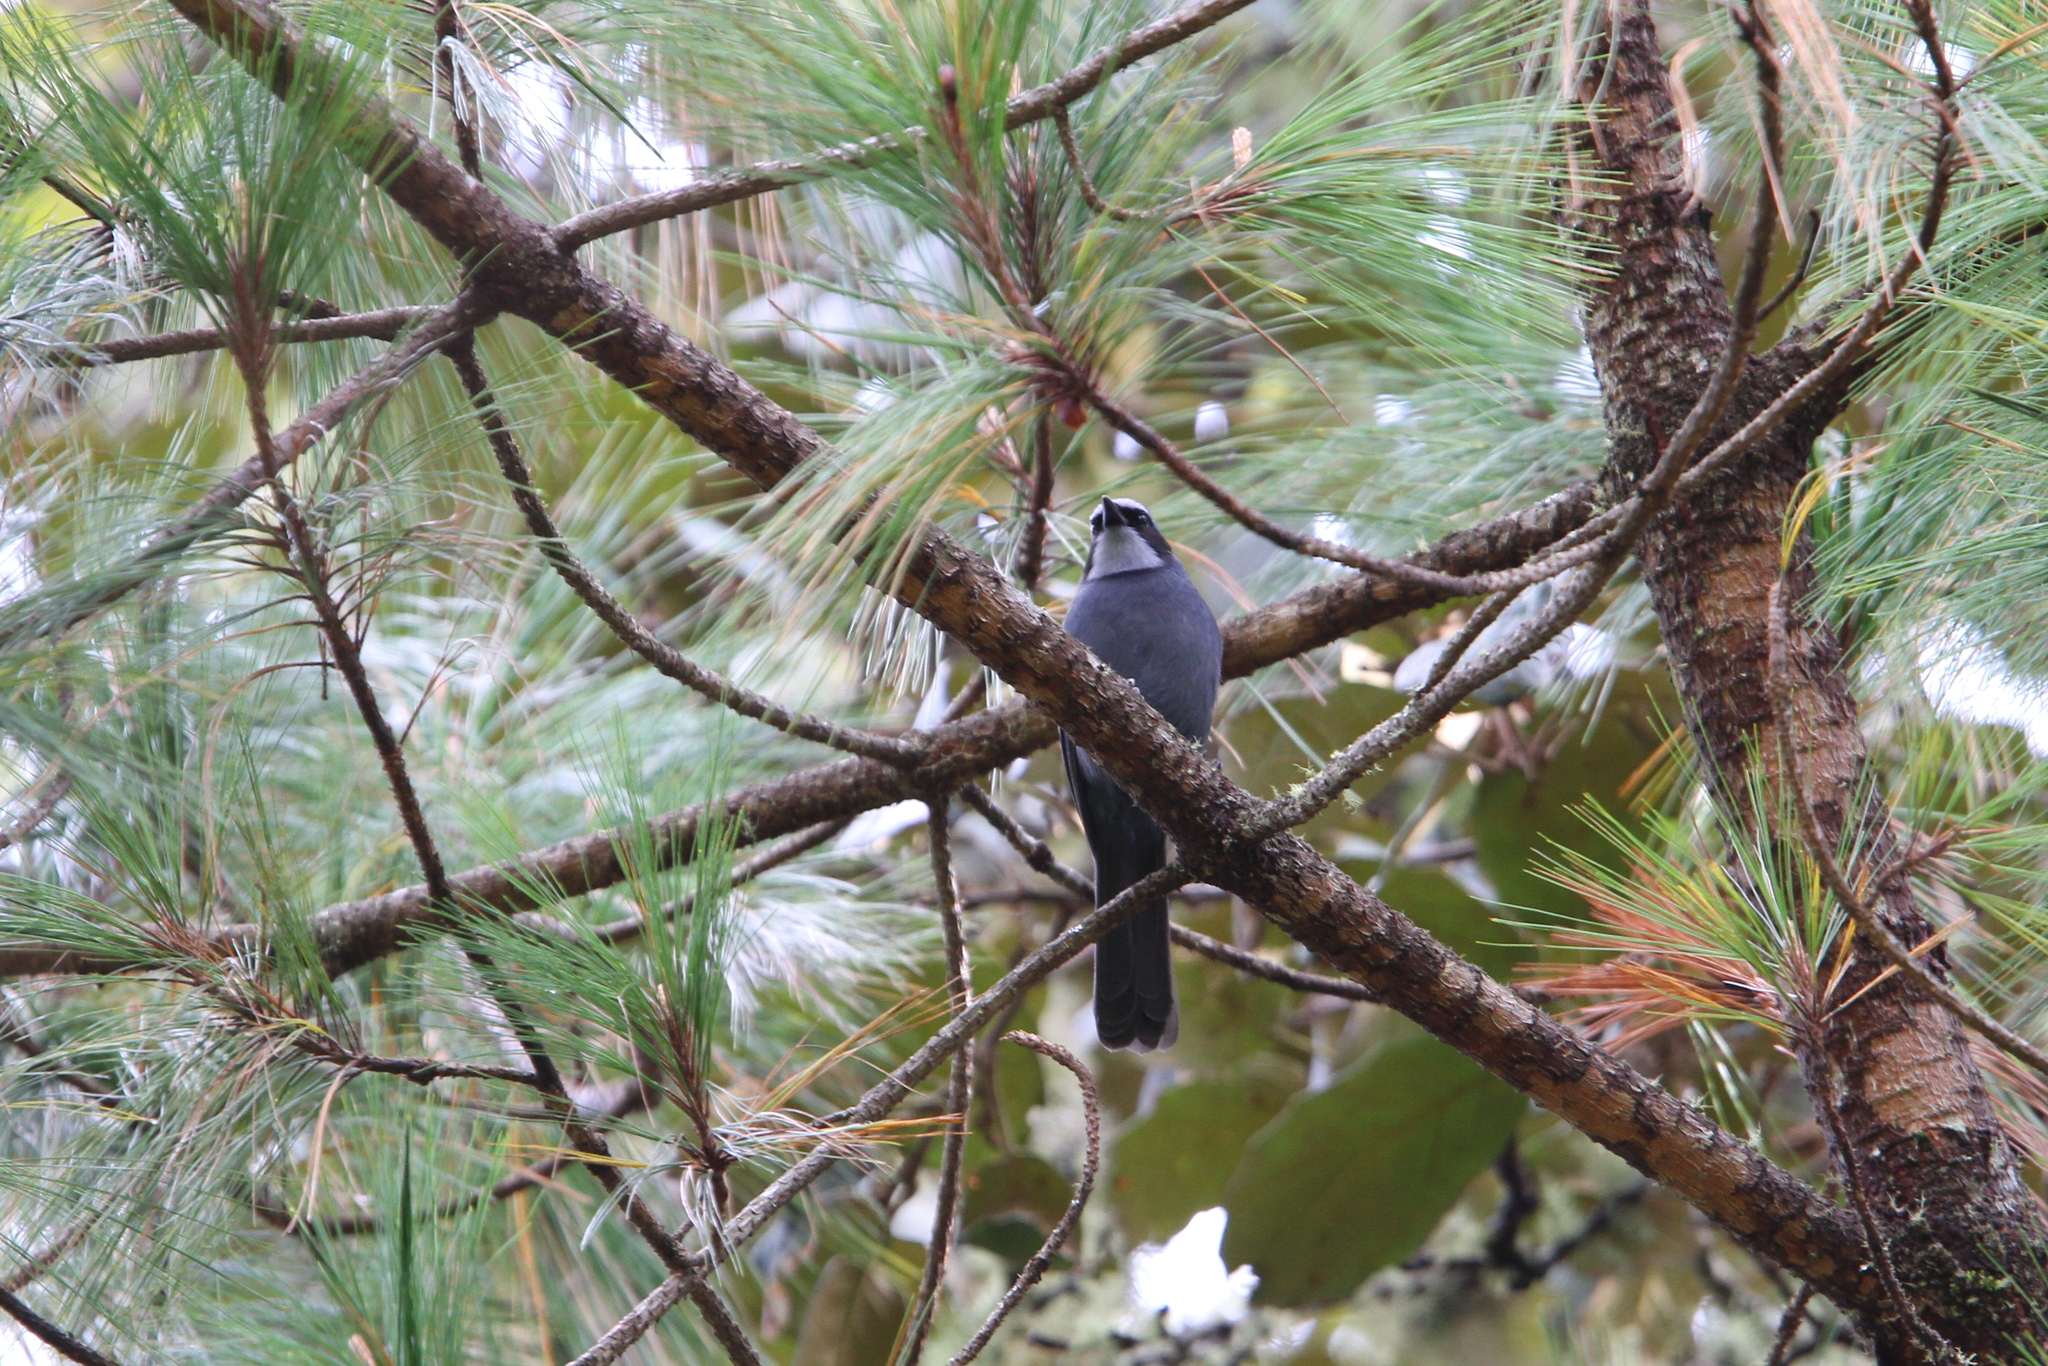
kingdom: Animalia
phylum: Chordata
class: Aves
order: Passeriformes
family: Corvidae
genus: Cyanolyca
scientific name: Cyanolyca nanus
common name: Dwarf jay
